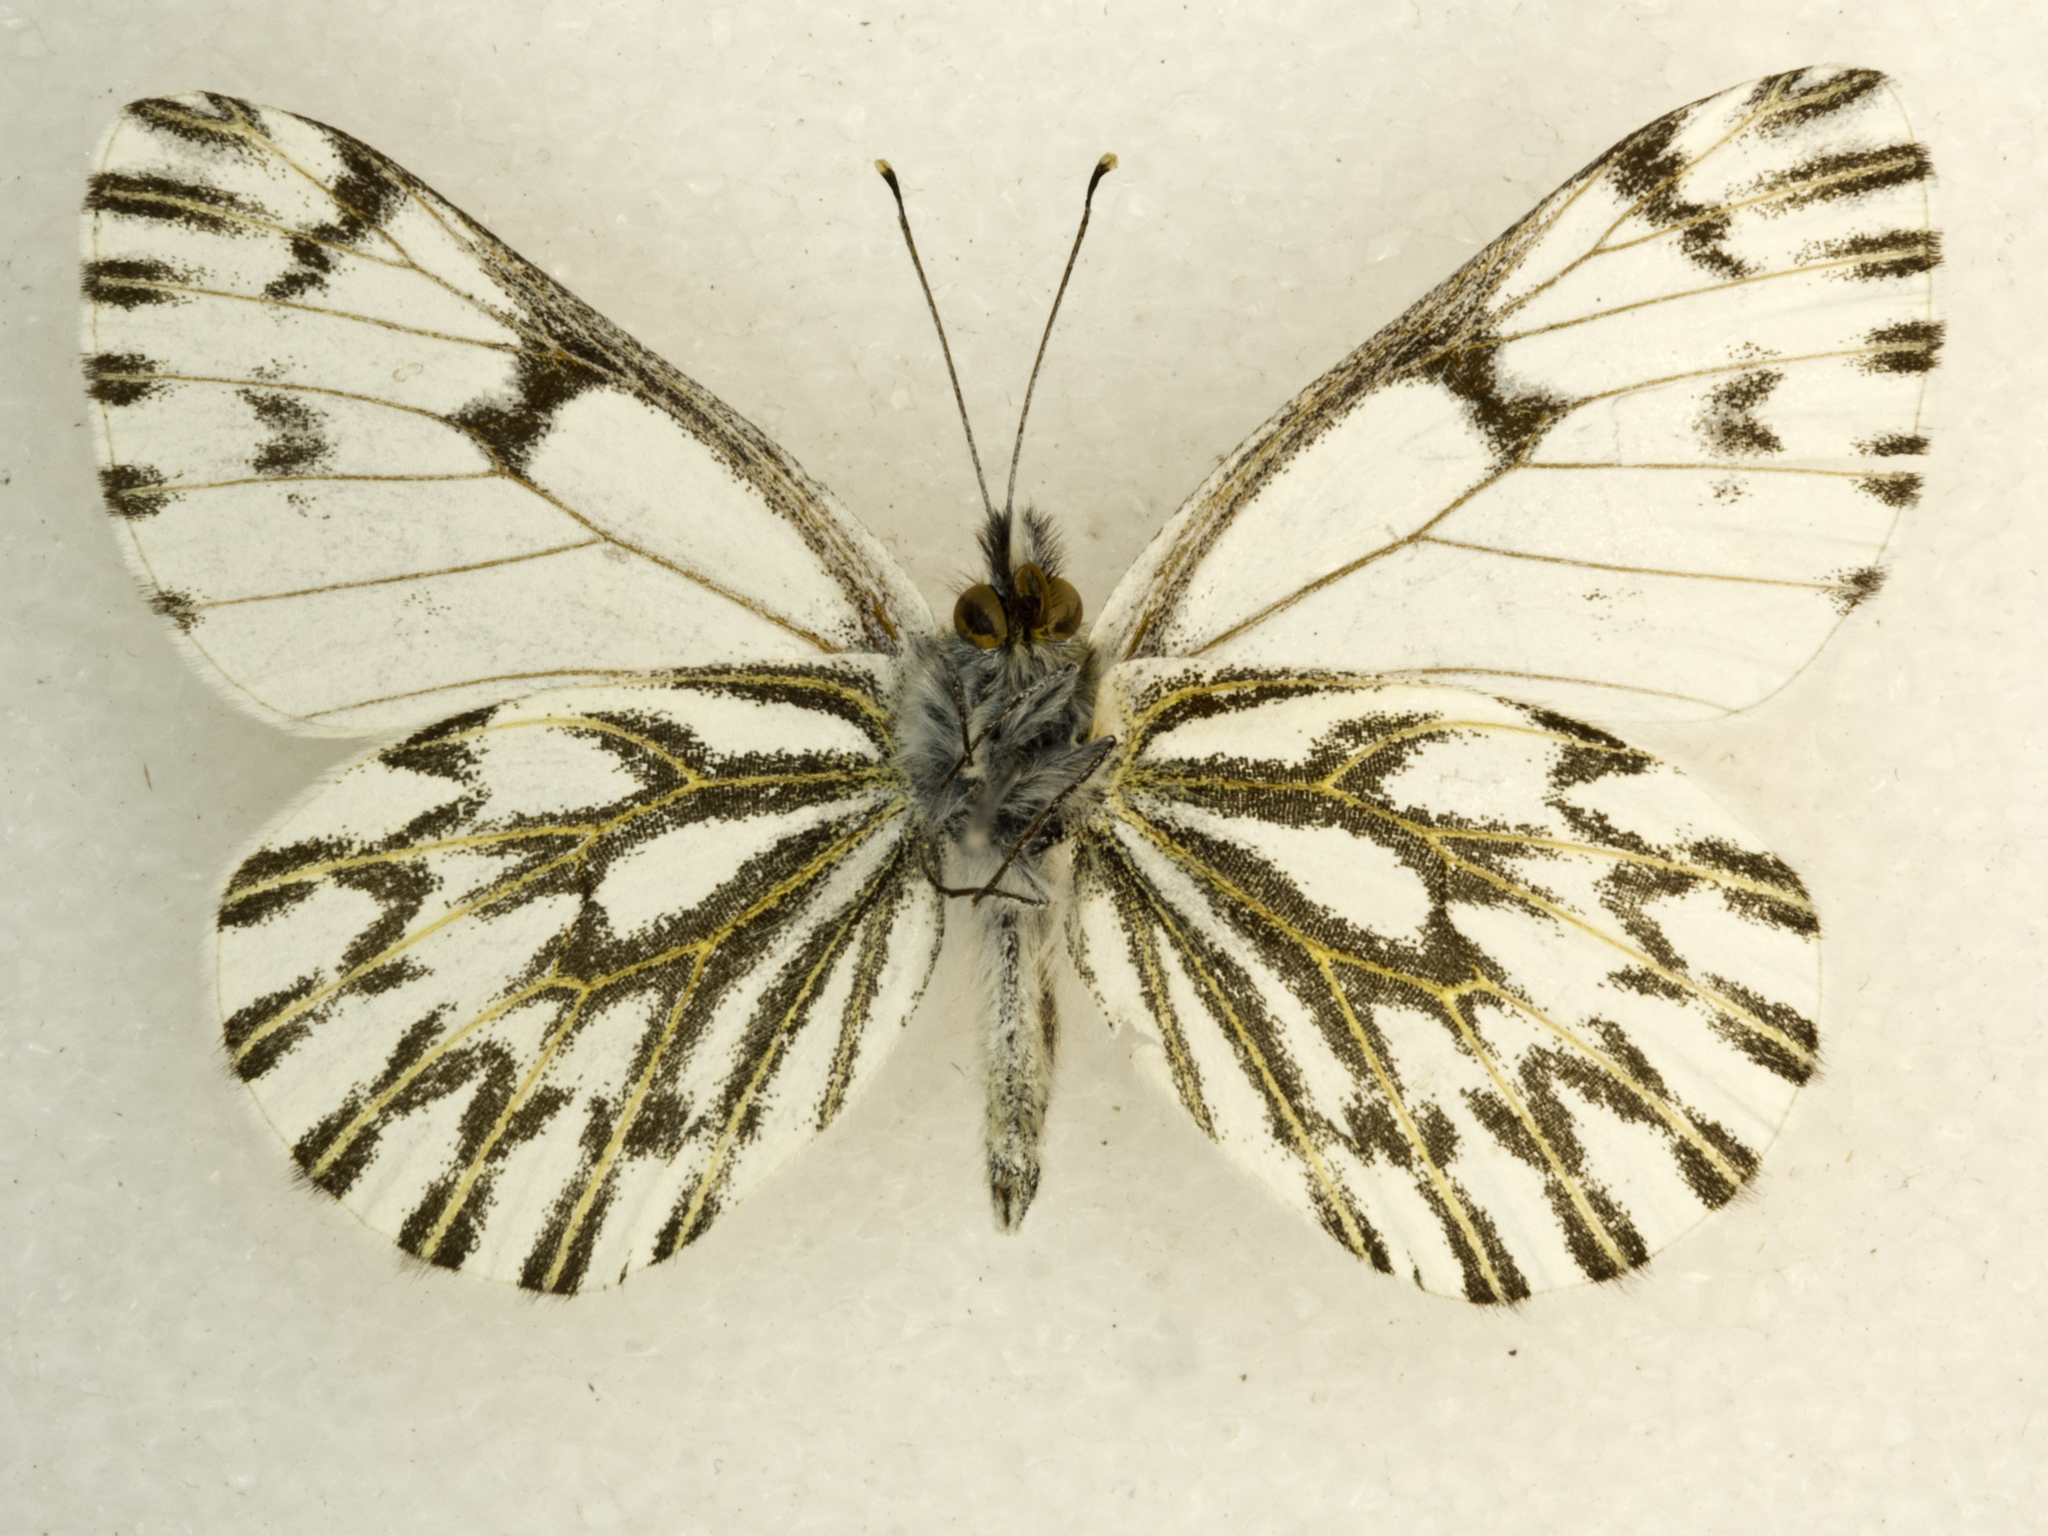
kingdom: Animalia
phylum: Arthropoda
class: Insecta
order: Lepidoptera
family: Pieridae
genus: Pontia
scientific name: Pontia sisymbrii
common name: California white
